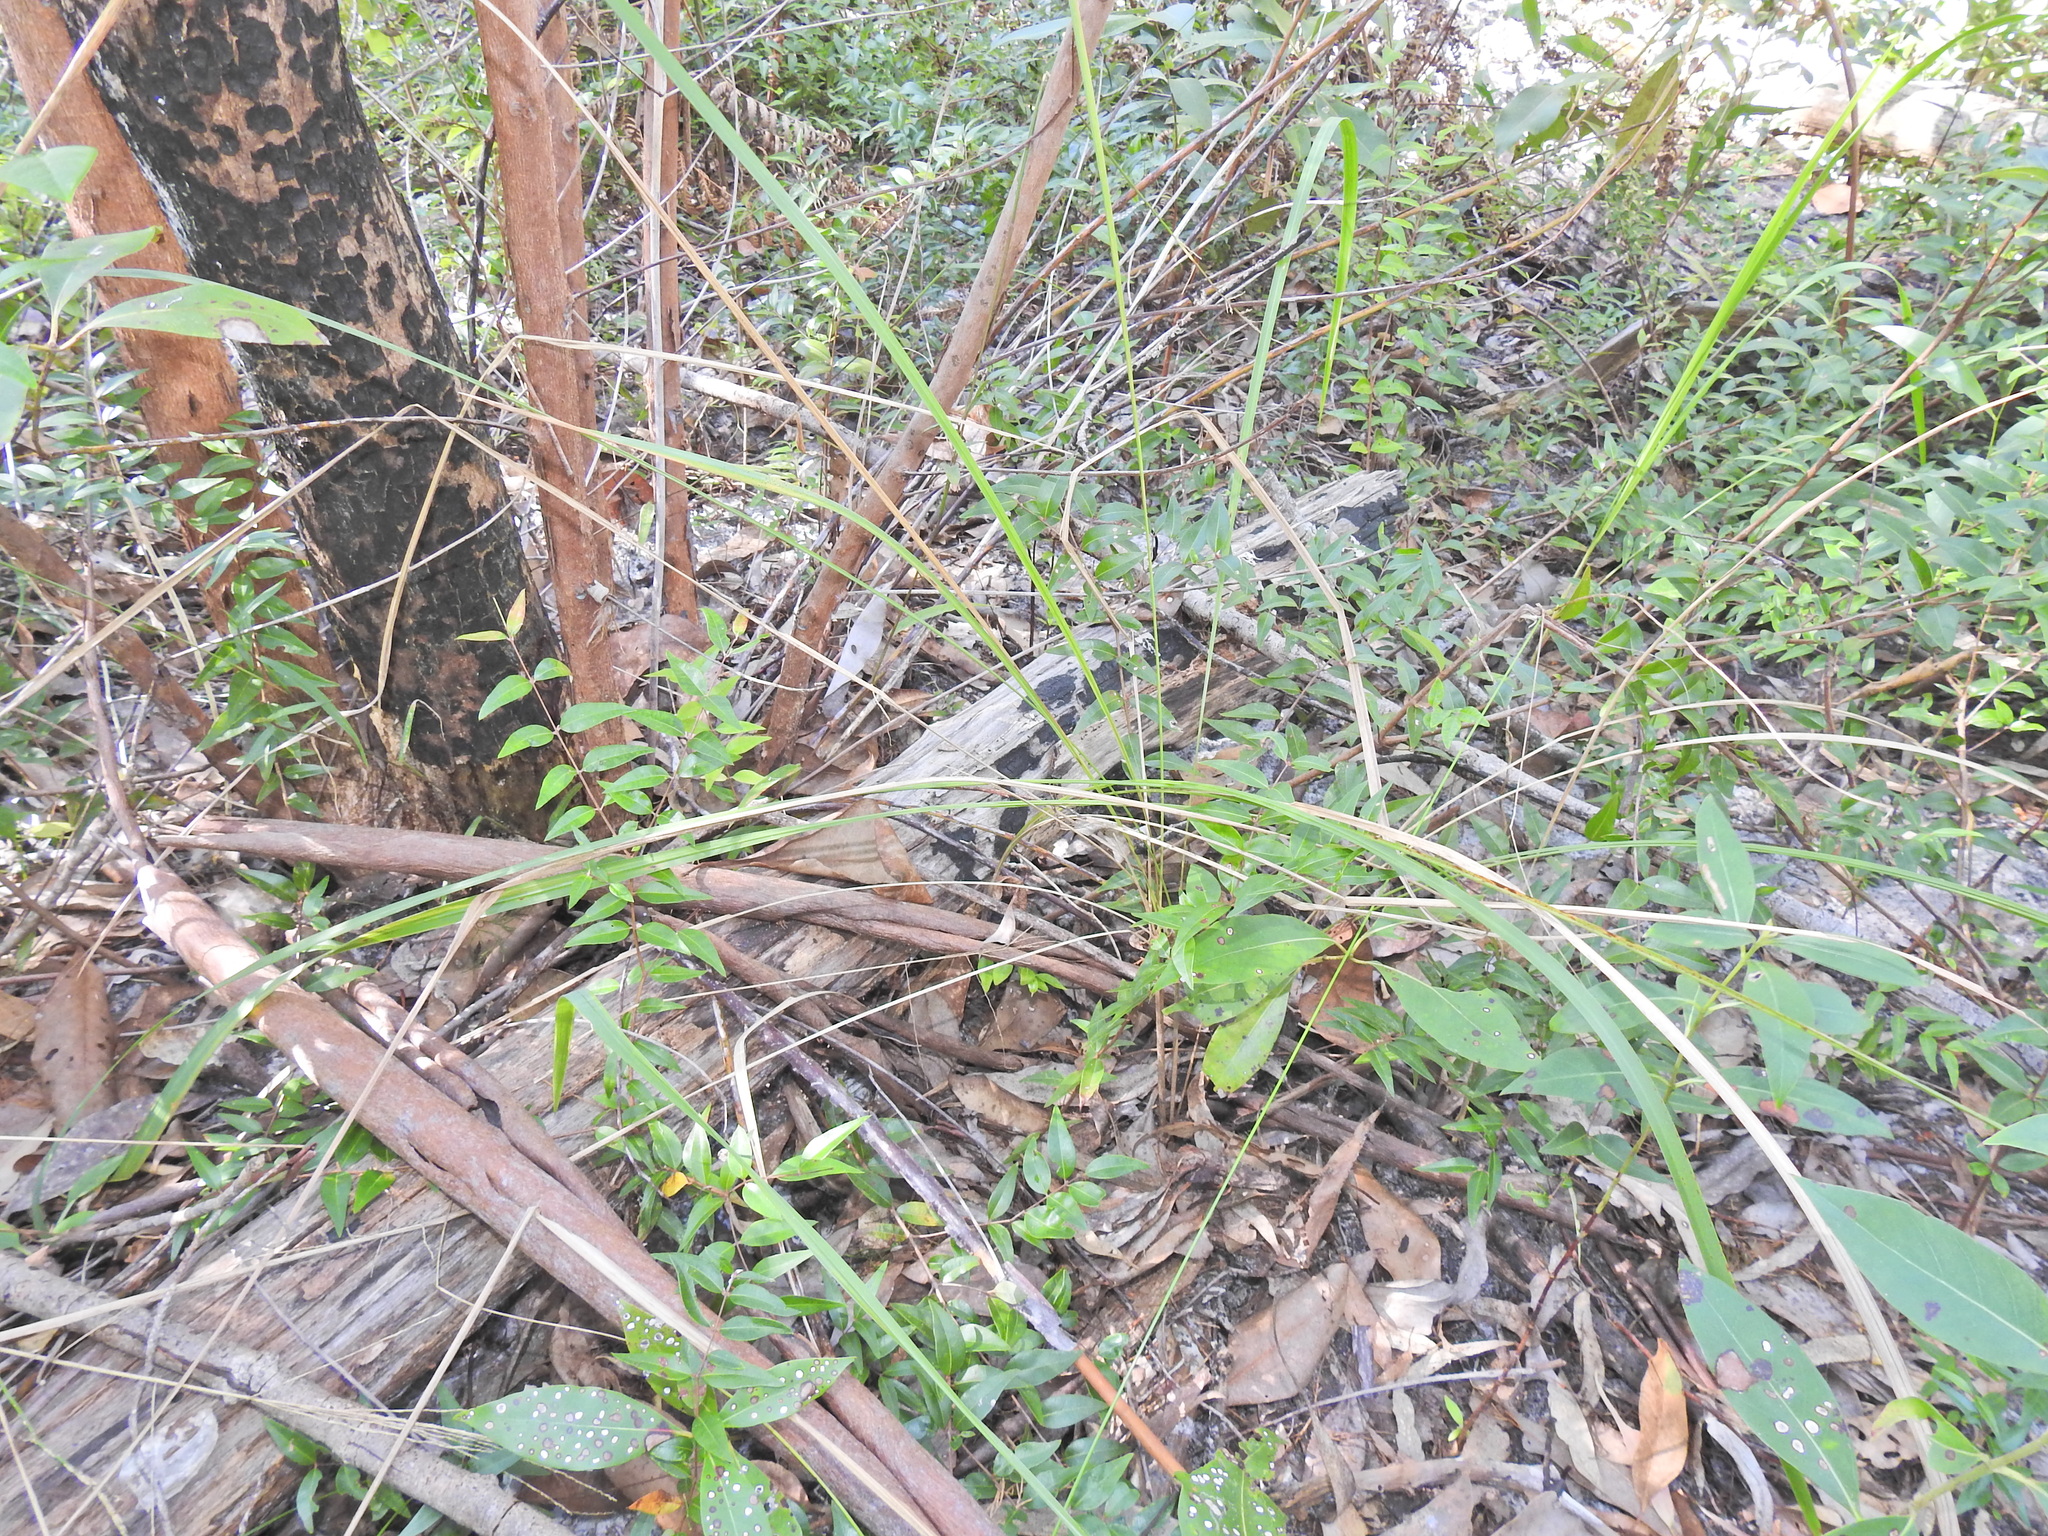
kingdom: Plantae
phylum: Tracheophyta
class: Liliopsida
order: Poales
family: Poaceae
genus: Imperata
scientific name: Imperata cylindrica
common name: Cogongrass
